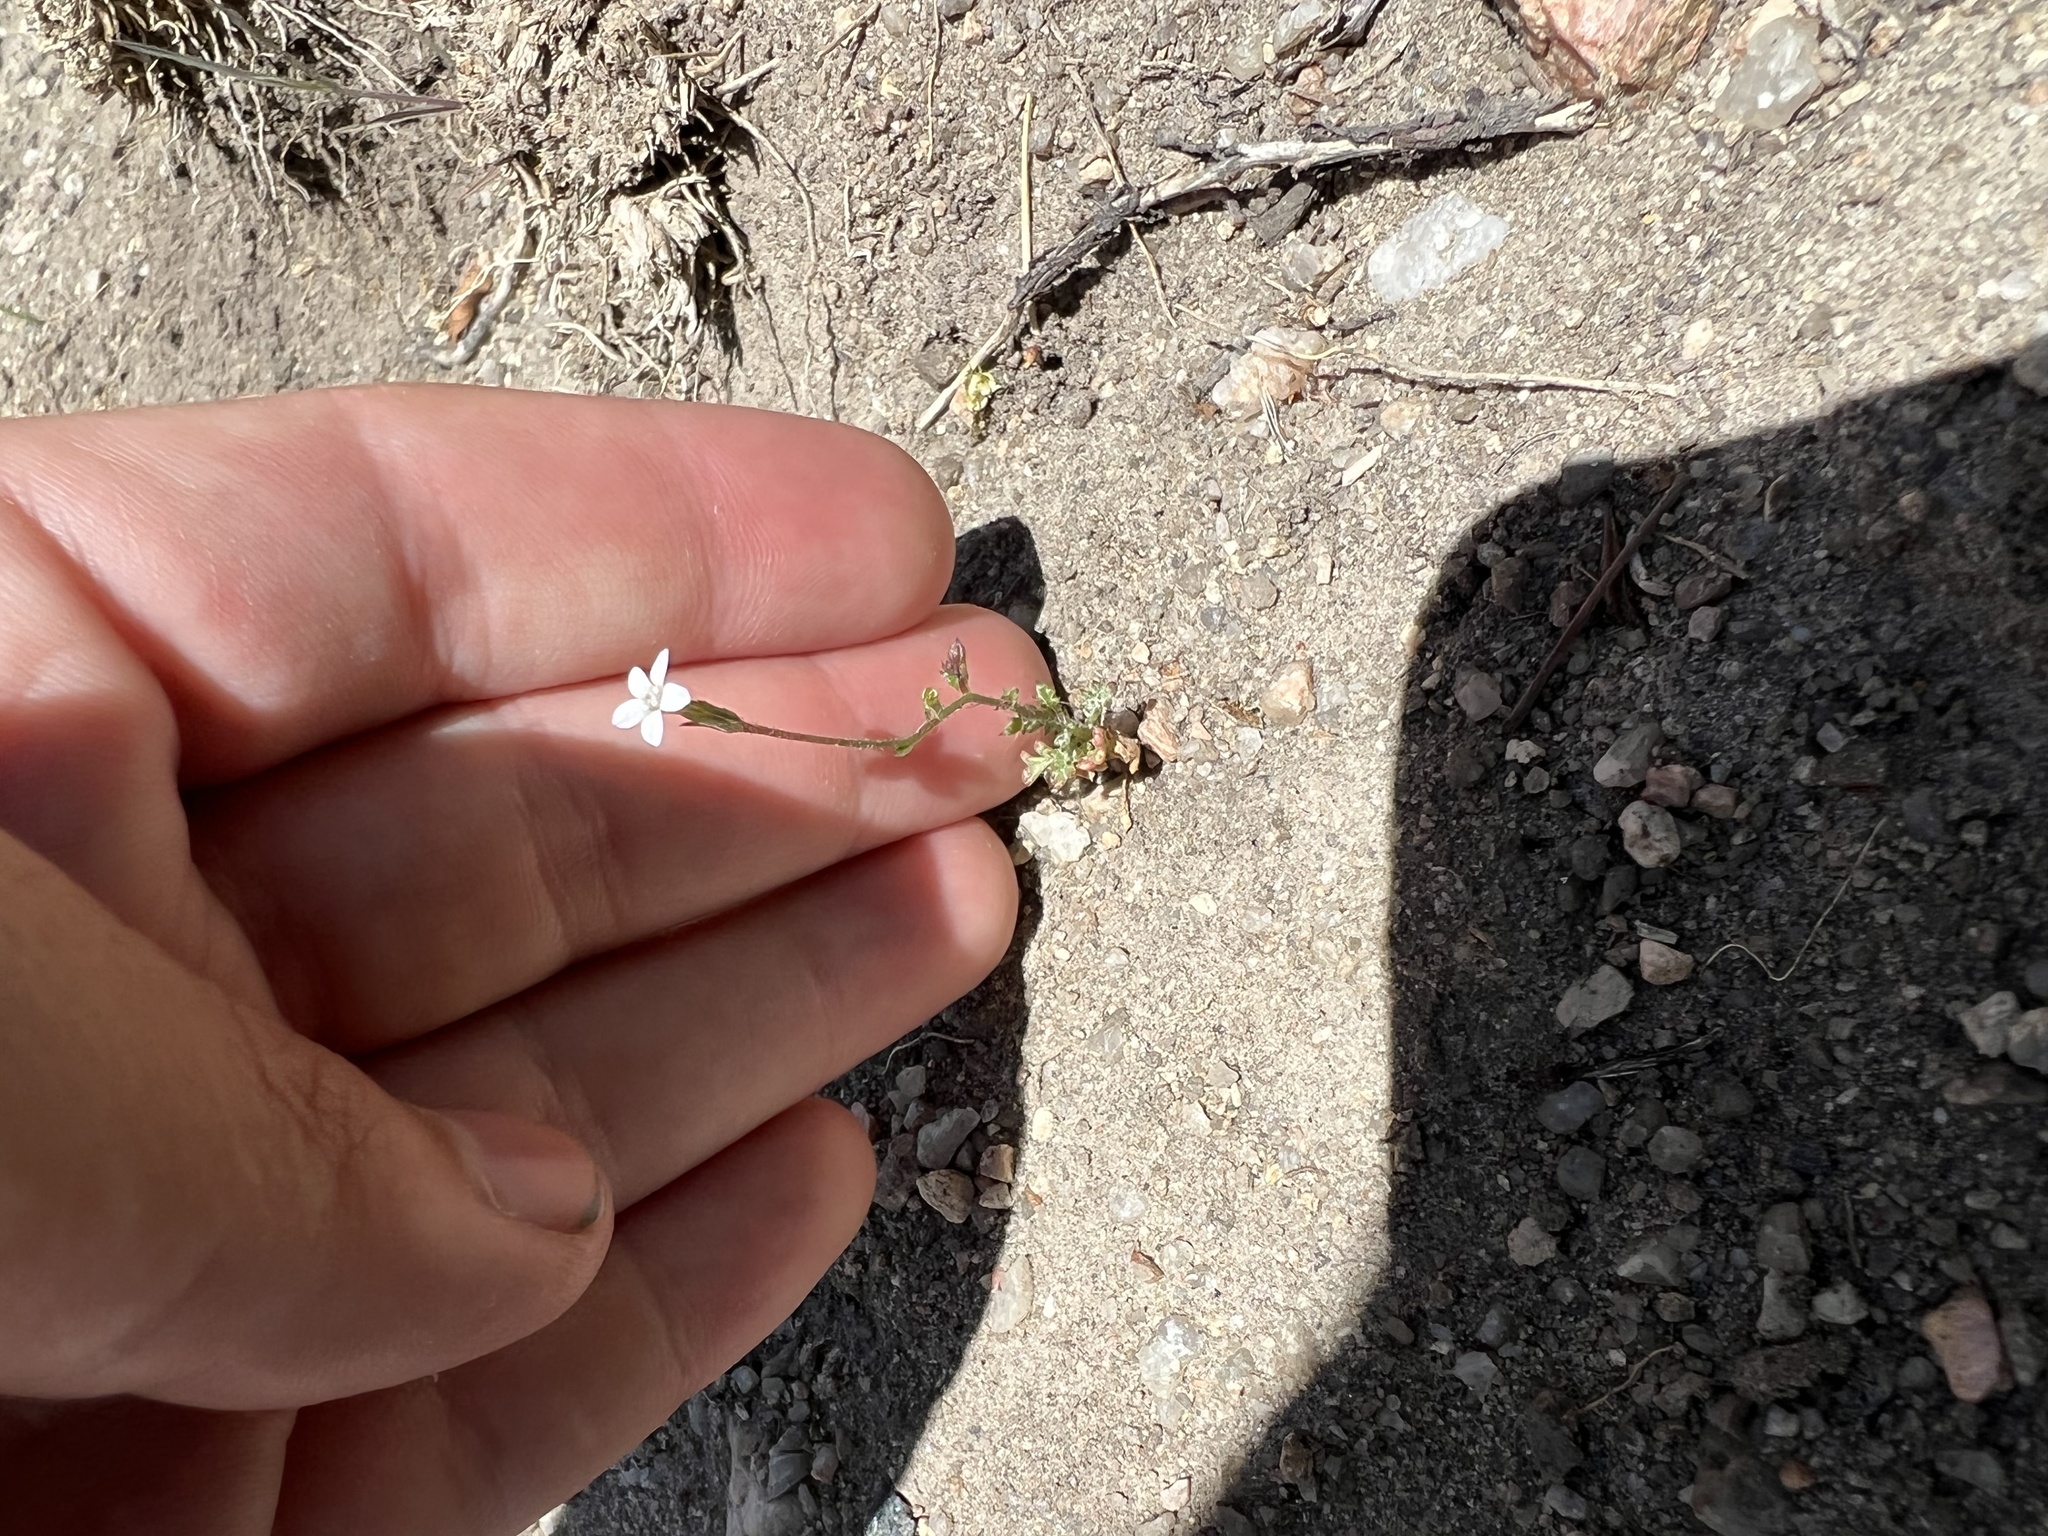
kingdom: Plantae
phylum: Tracheophyta
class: Magnoliopsida
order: Ericales
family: Polemoniaceae
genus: Gilia
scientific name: Gilia clokeyi
